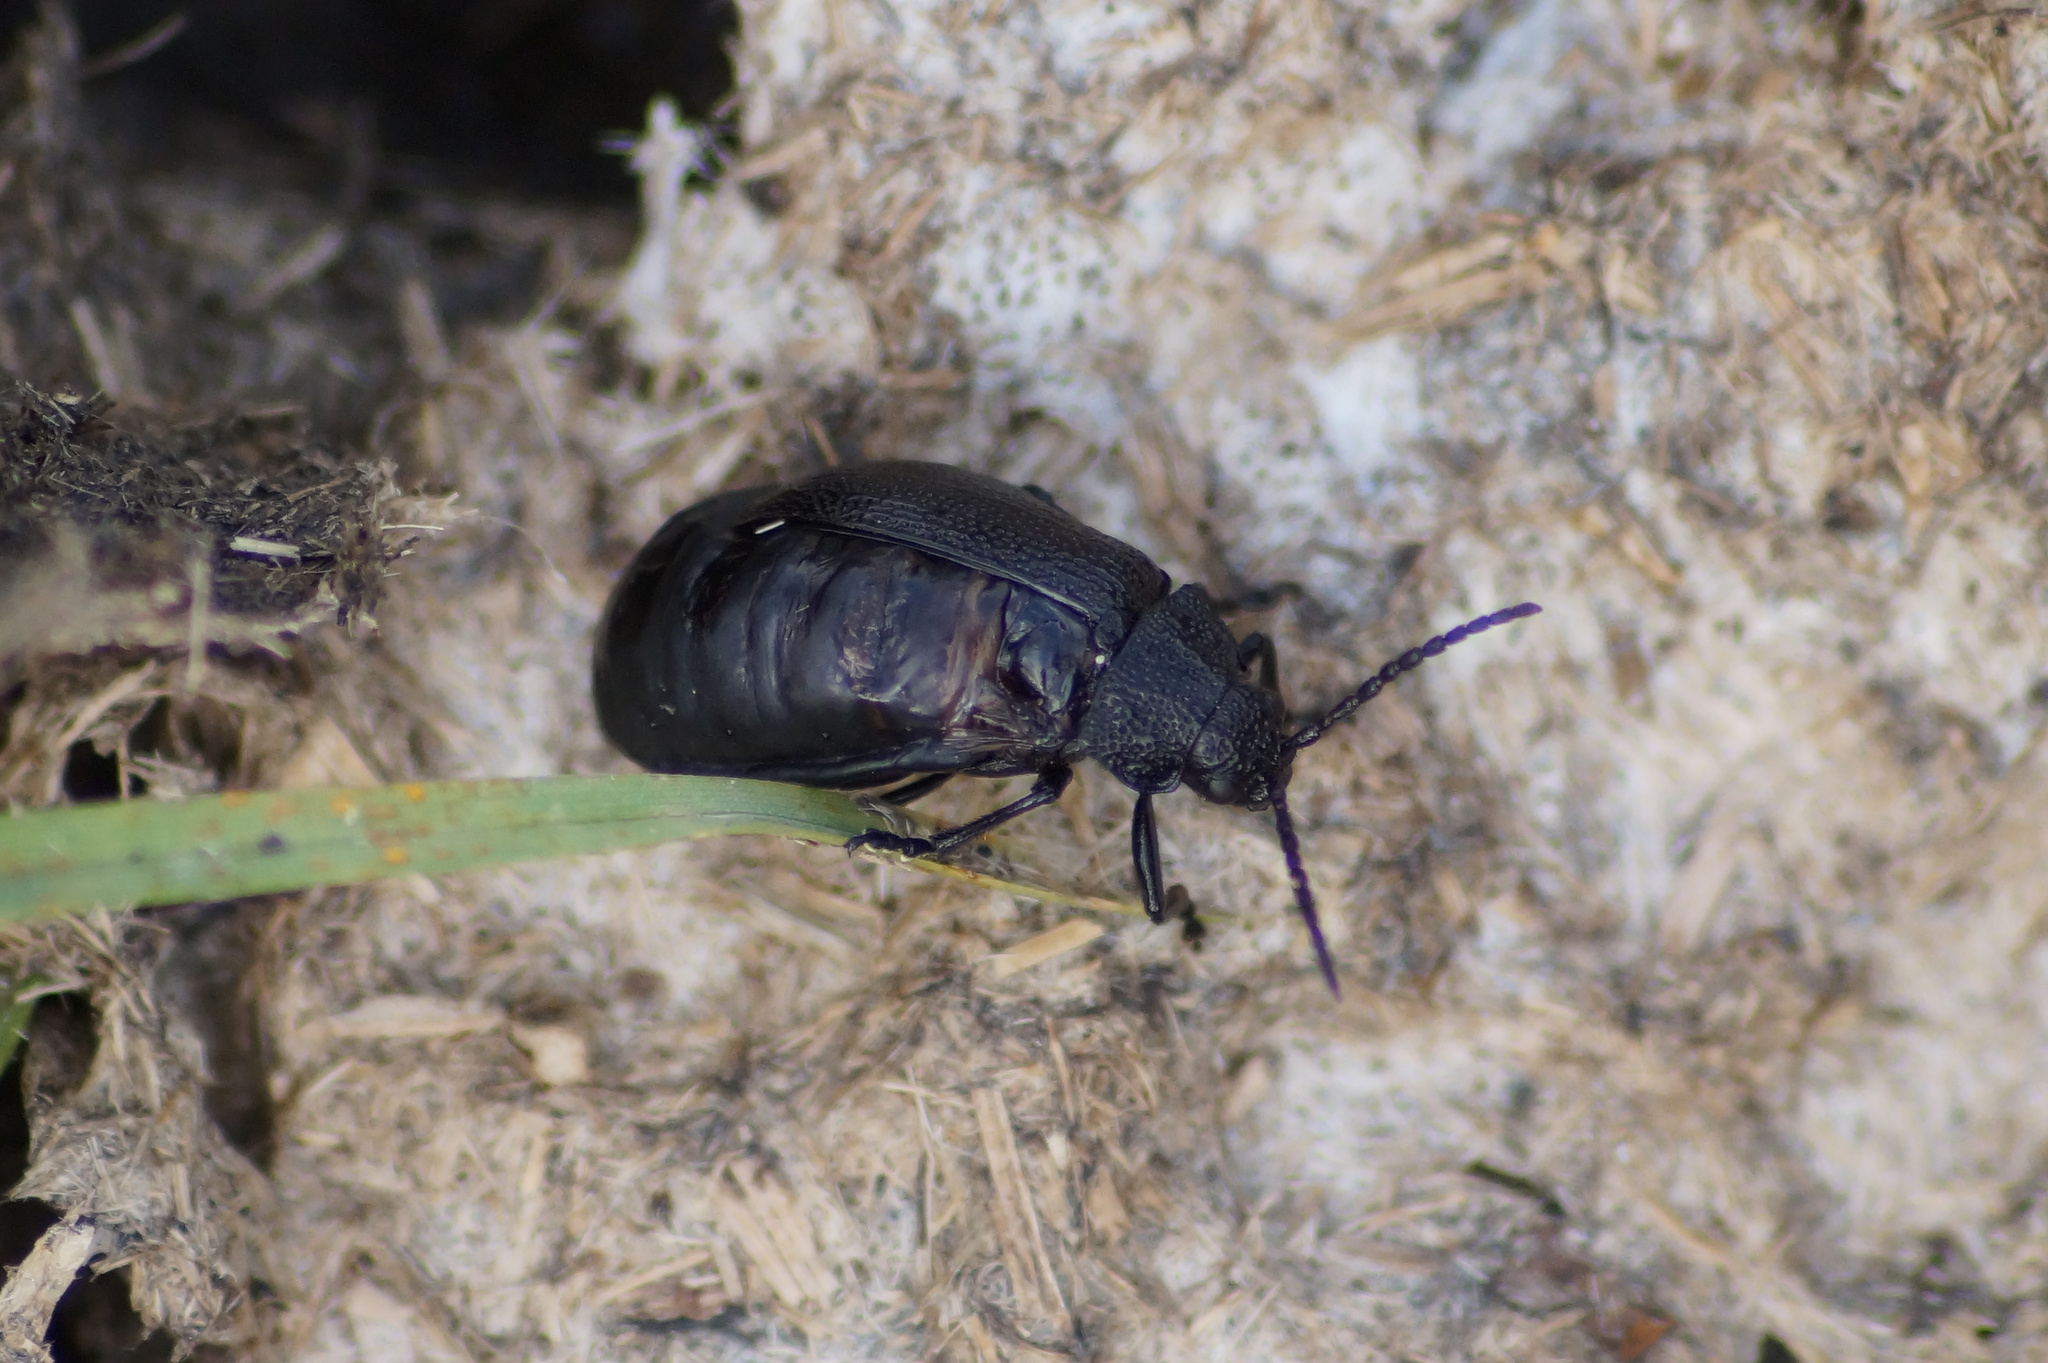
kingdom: Animalia
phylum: Arthropoda
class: Insecta
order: Coleoptera
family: Chrysomelidae
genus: Galeruca
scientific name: Galeruca tanaceti
